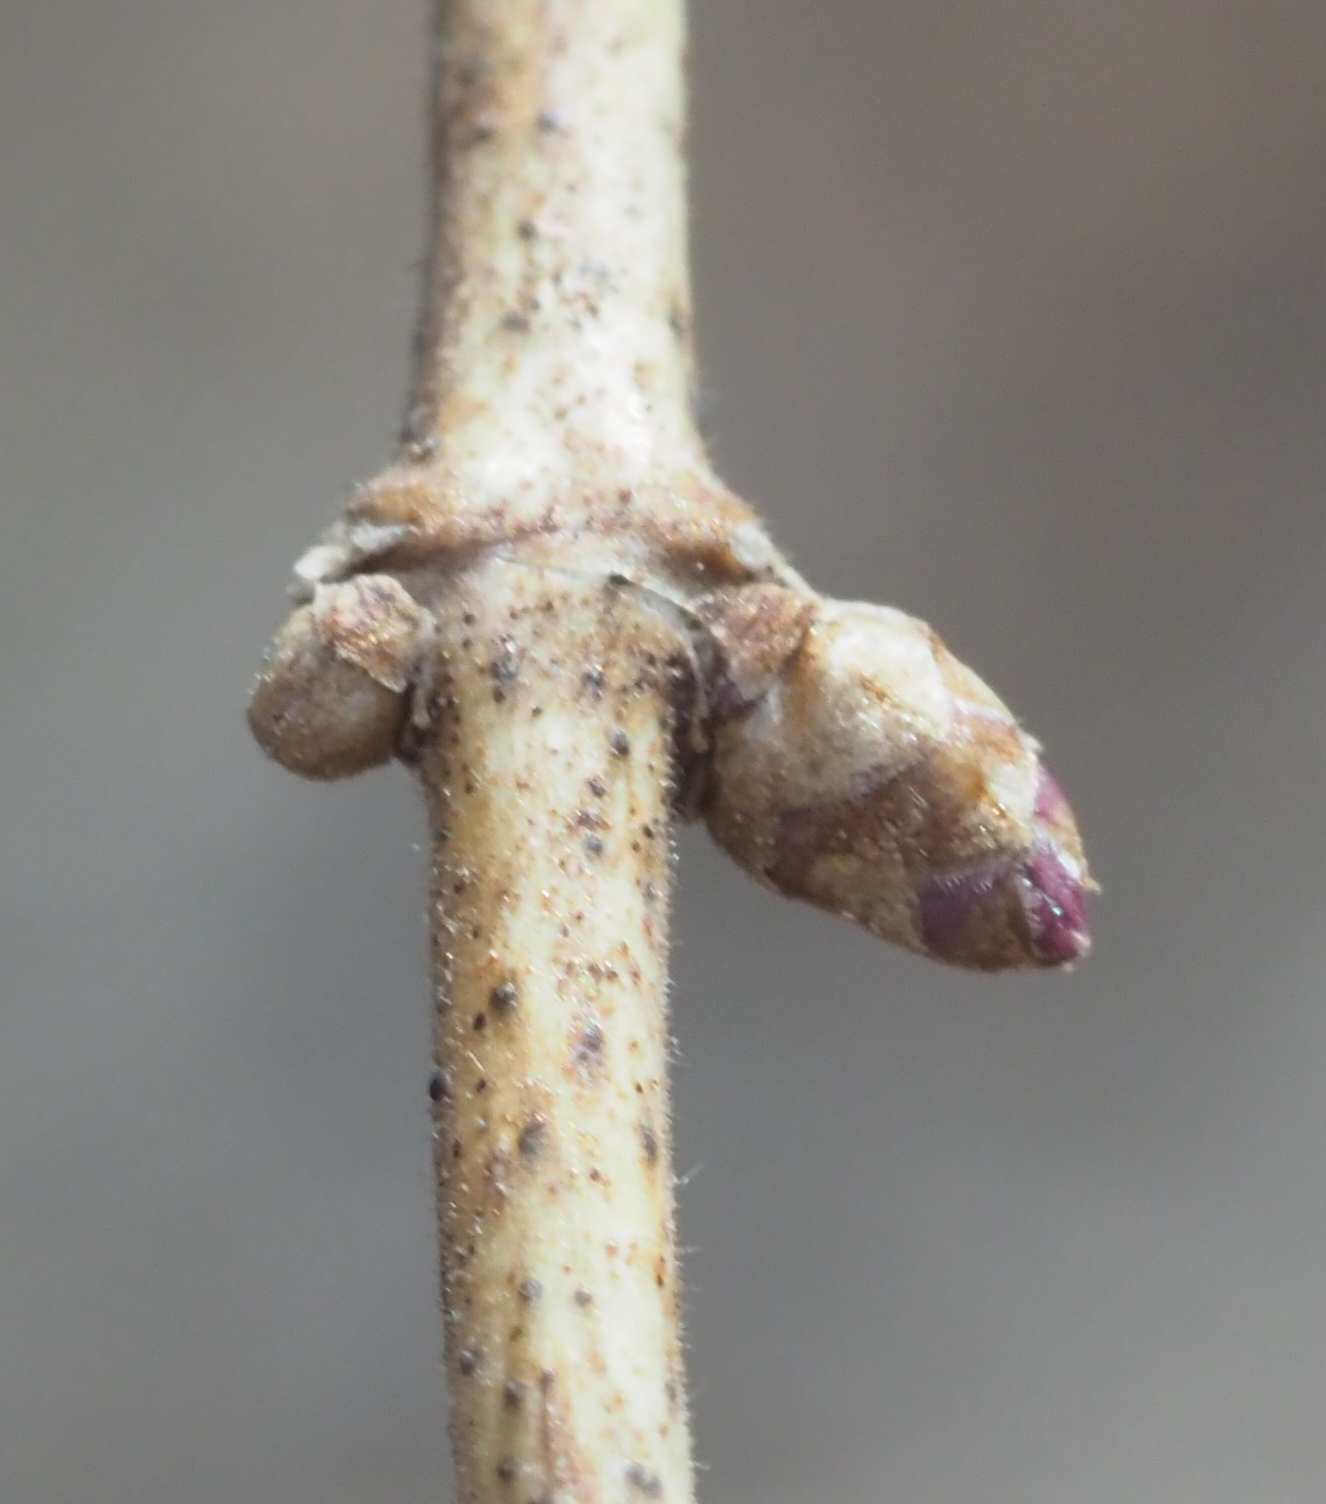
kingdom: Plantae
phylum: Tracheophyta
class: Magnoliopsida
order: Dipsacales
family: Caprifoliaceae
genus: Lonicera
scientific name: Lonicera maackii
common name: Amur honeysuckle
